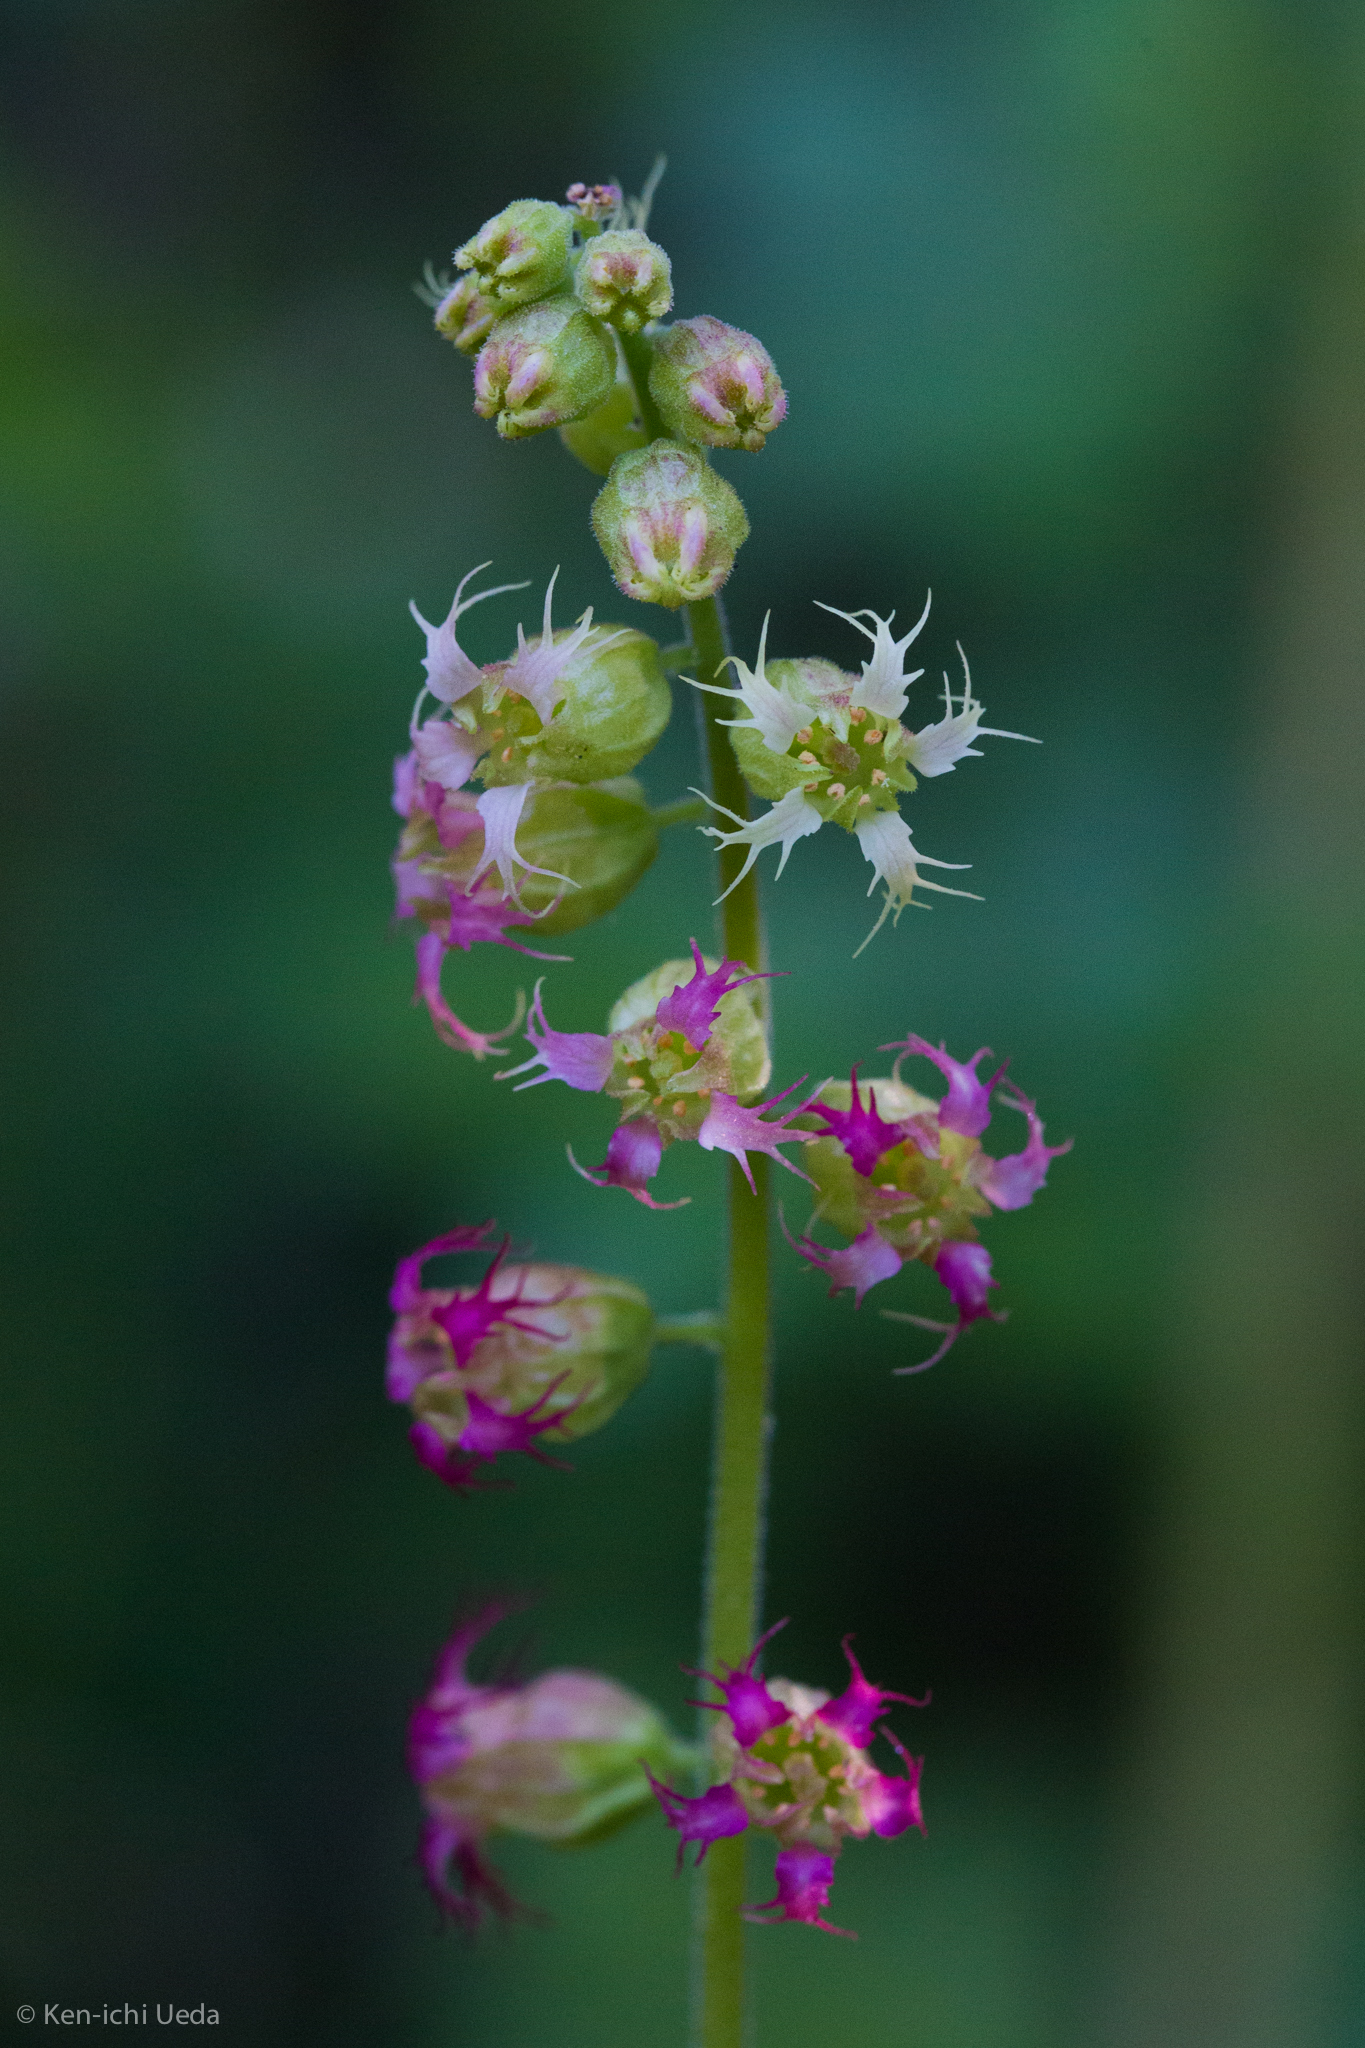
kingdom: Plantae
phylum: Tracheophyta
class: Magnoliopsida
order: Saxifragales
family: Saxifragaceae
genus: Tellima
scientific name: Tellima grandiflora
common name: Fringecups
